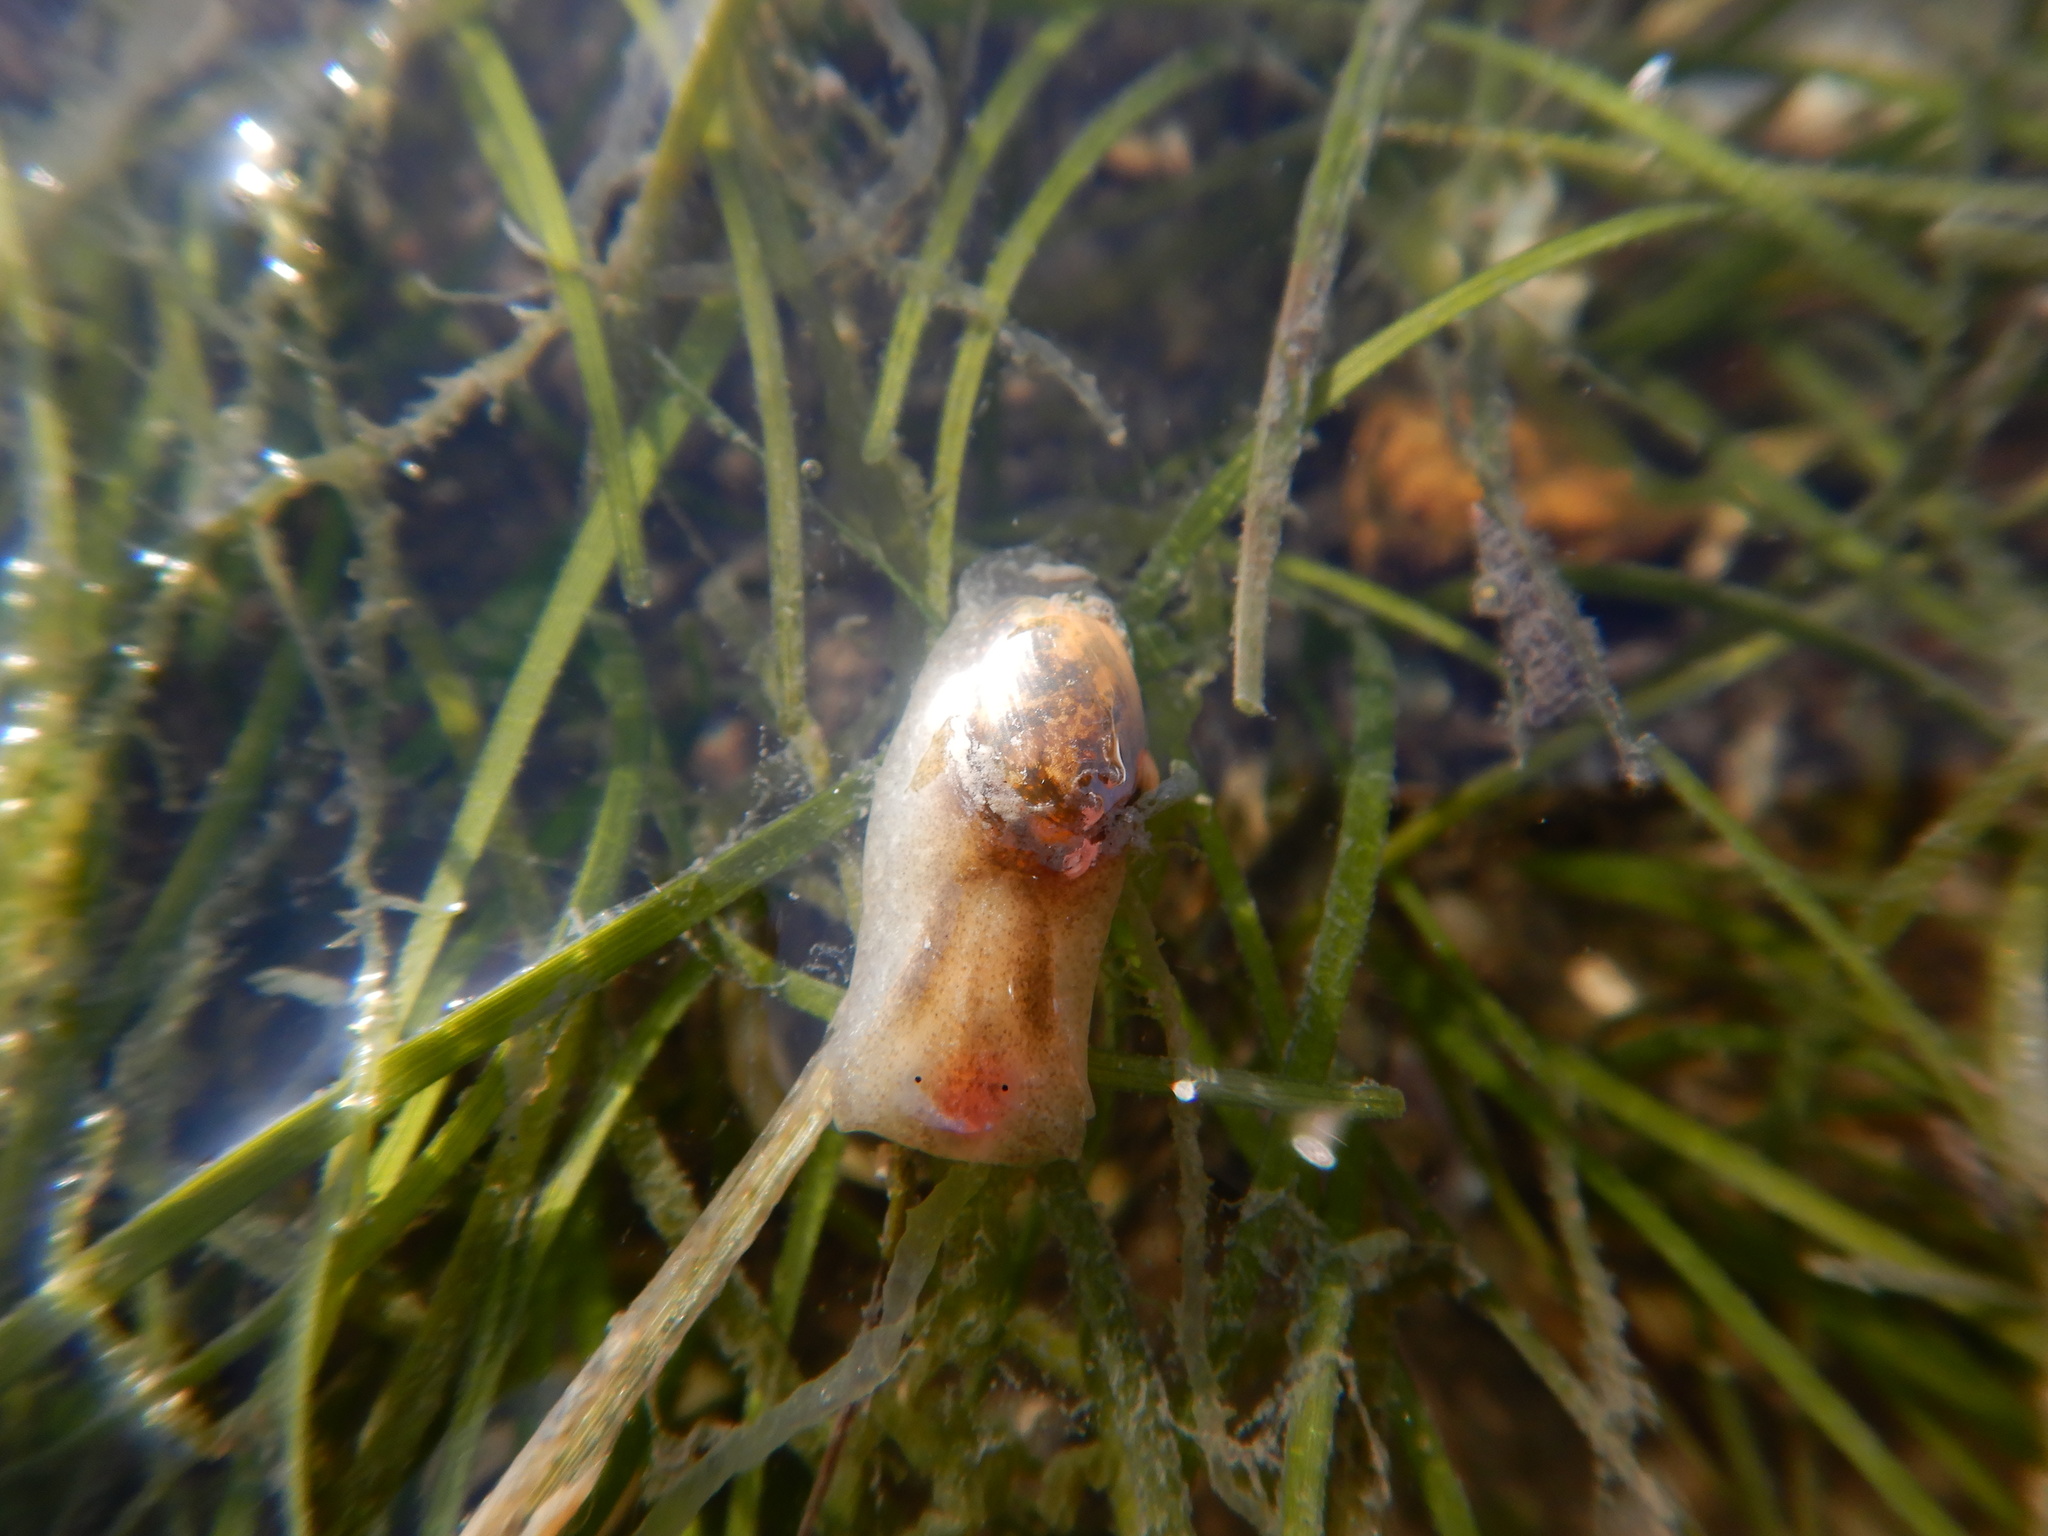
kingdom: Animalia
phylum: Mollusca
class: Gastropoda
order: Cephalaspidea
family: Haminoeidae
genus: Haminoea
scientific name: Haminoea orbignyana
